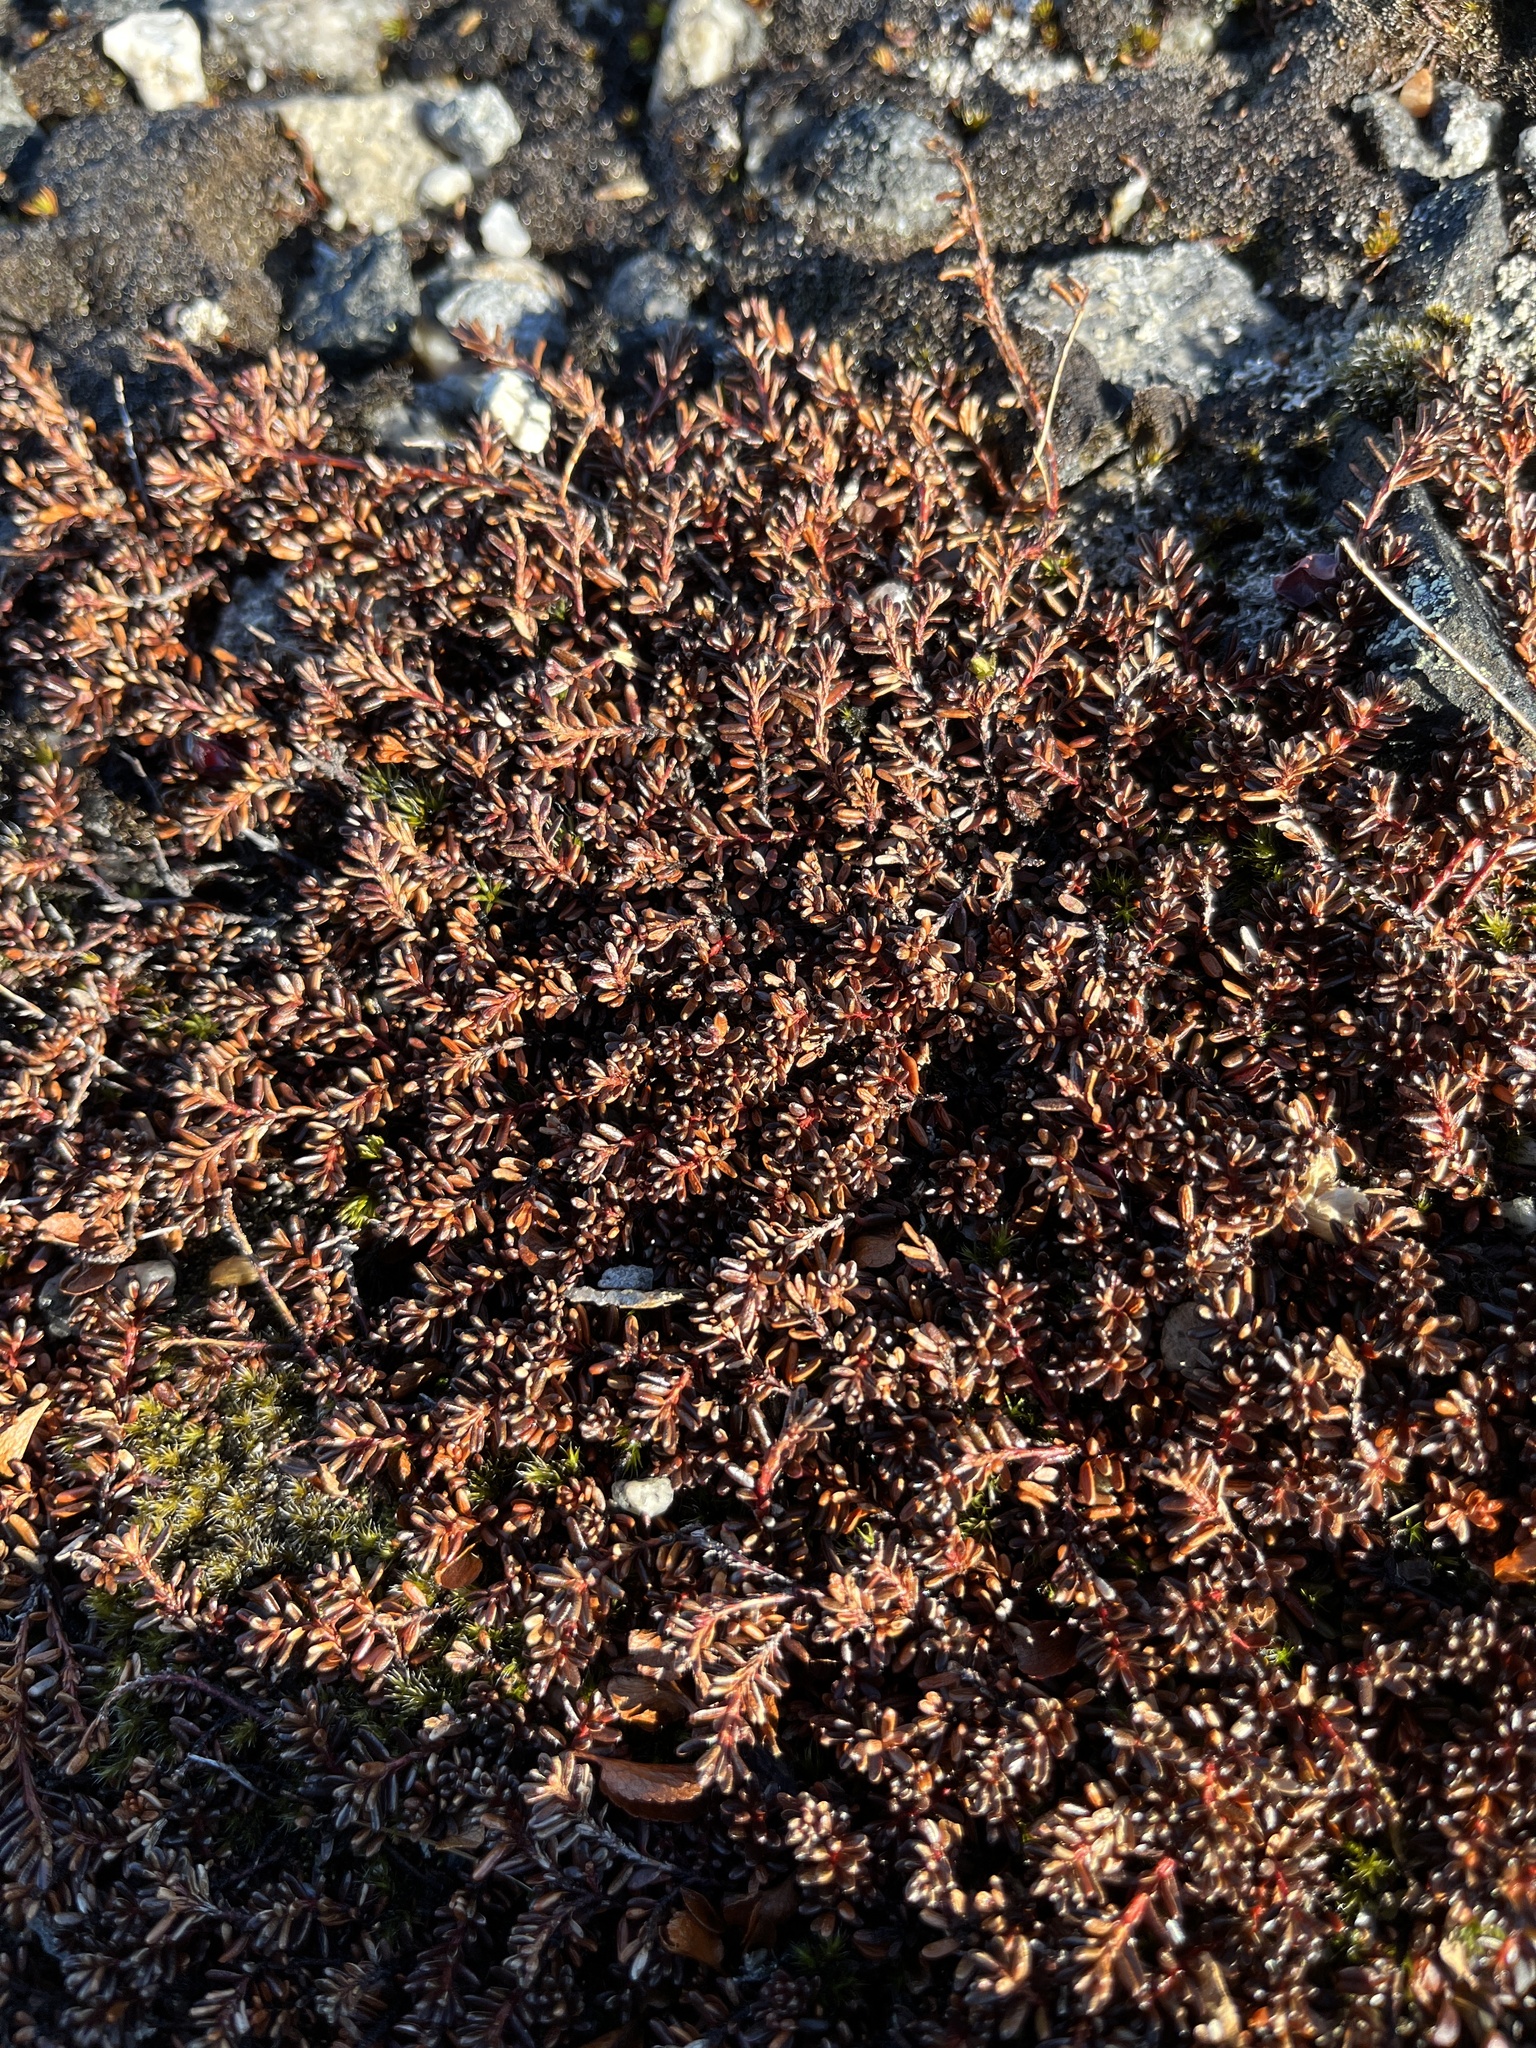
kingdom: Plantae
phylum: Tracheophyta
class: Magnoliopsida
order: Ericales
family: Ericaceae
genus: Empetrum
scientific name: Empetrum hermaphroditum
